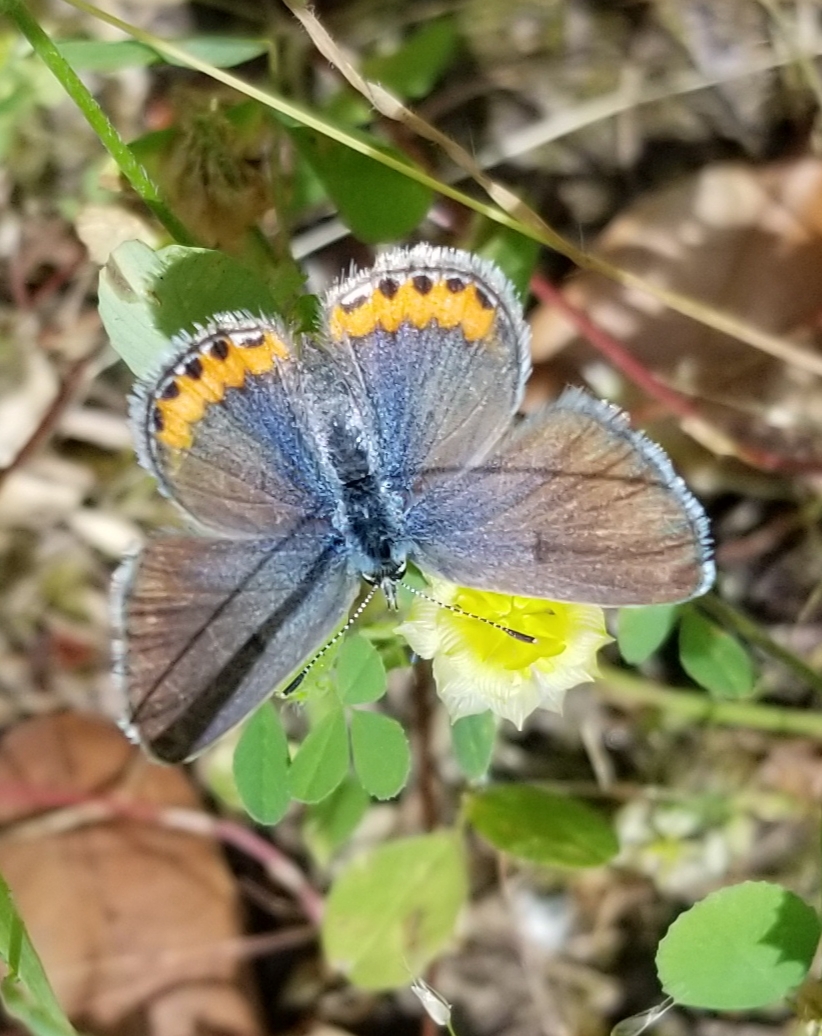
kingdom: Animalia
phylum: Arthropoda
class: Insecta
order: Lepidoptera
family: Lycaenidae
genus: Icaricia
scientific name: Icaricia acmon
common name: Acmon blue
